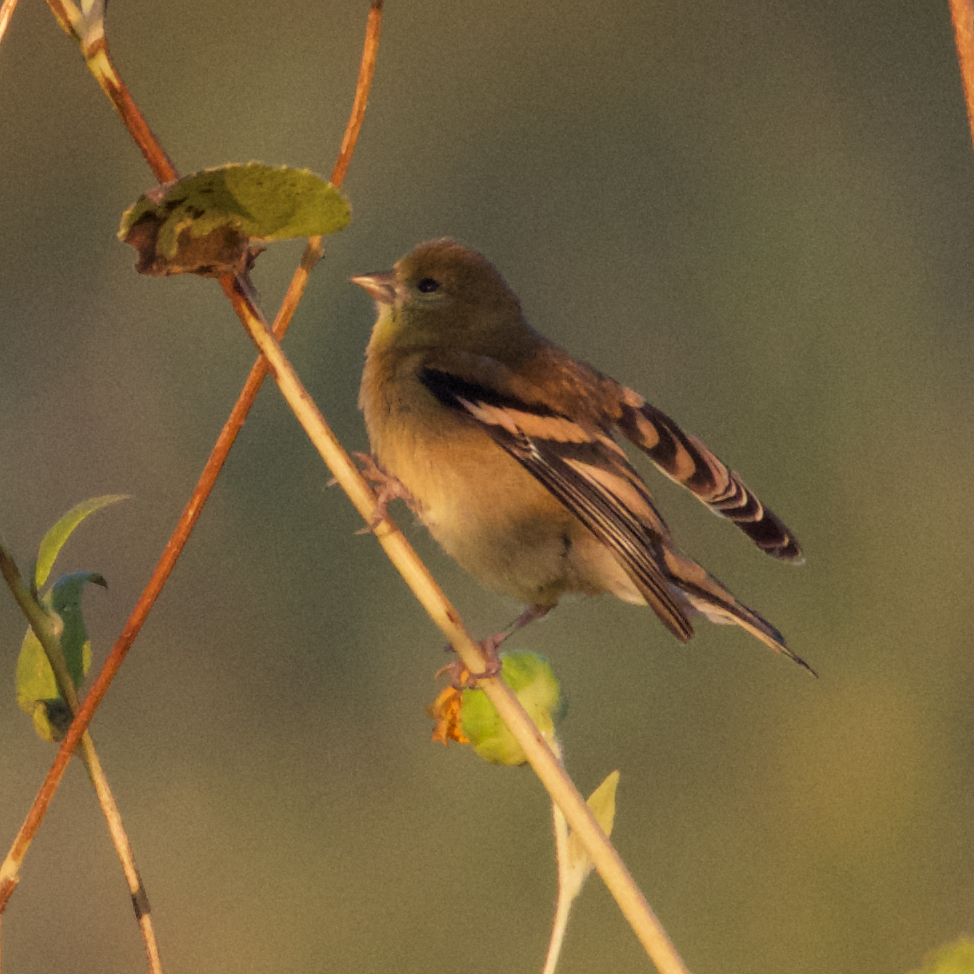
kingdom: Animalia
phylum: Chordata
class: Aves
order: Passeriformes
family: Fringillidae
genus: Spinus
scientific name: Spinus tristis
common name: American goldfinch
